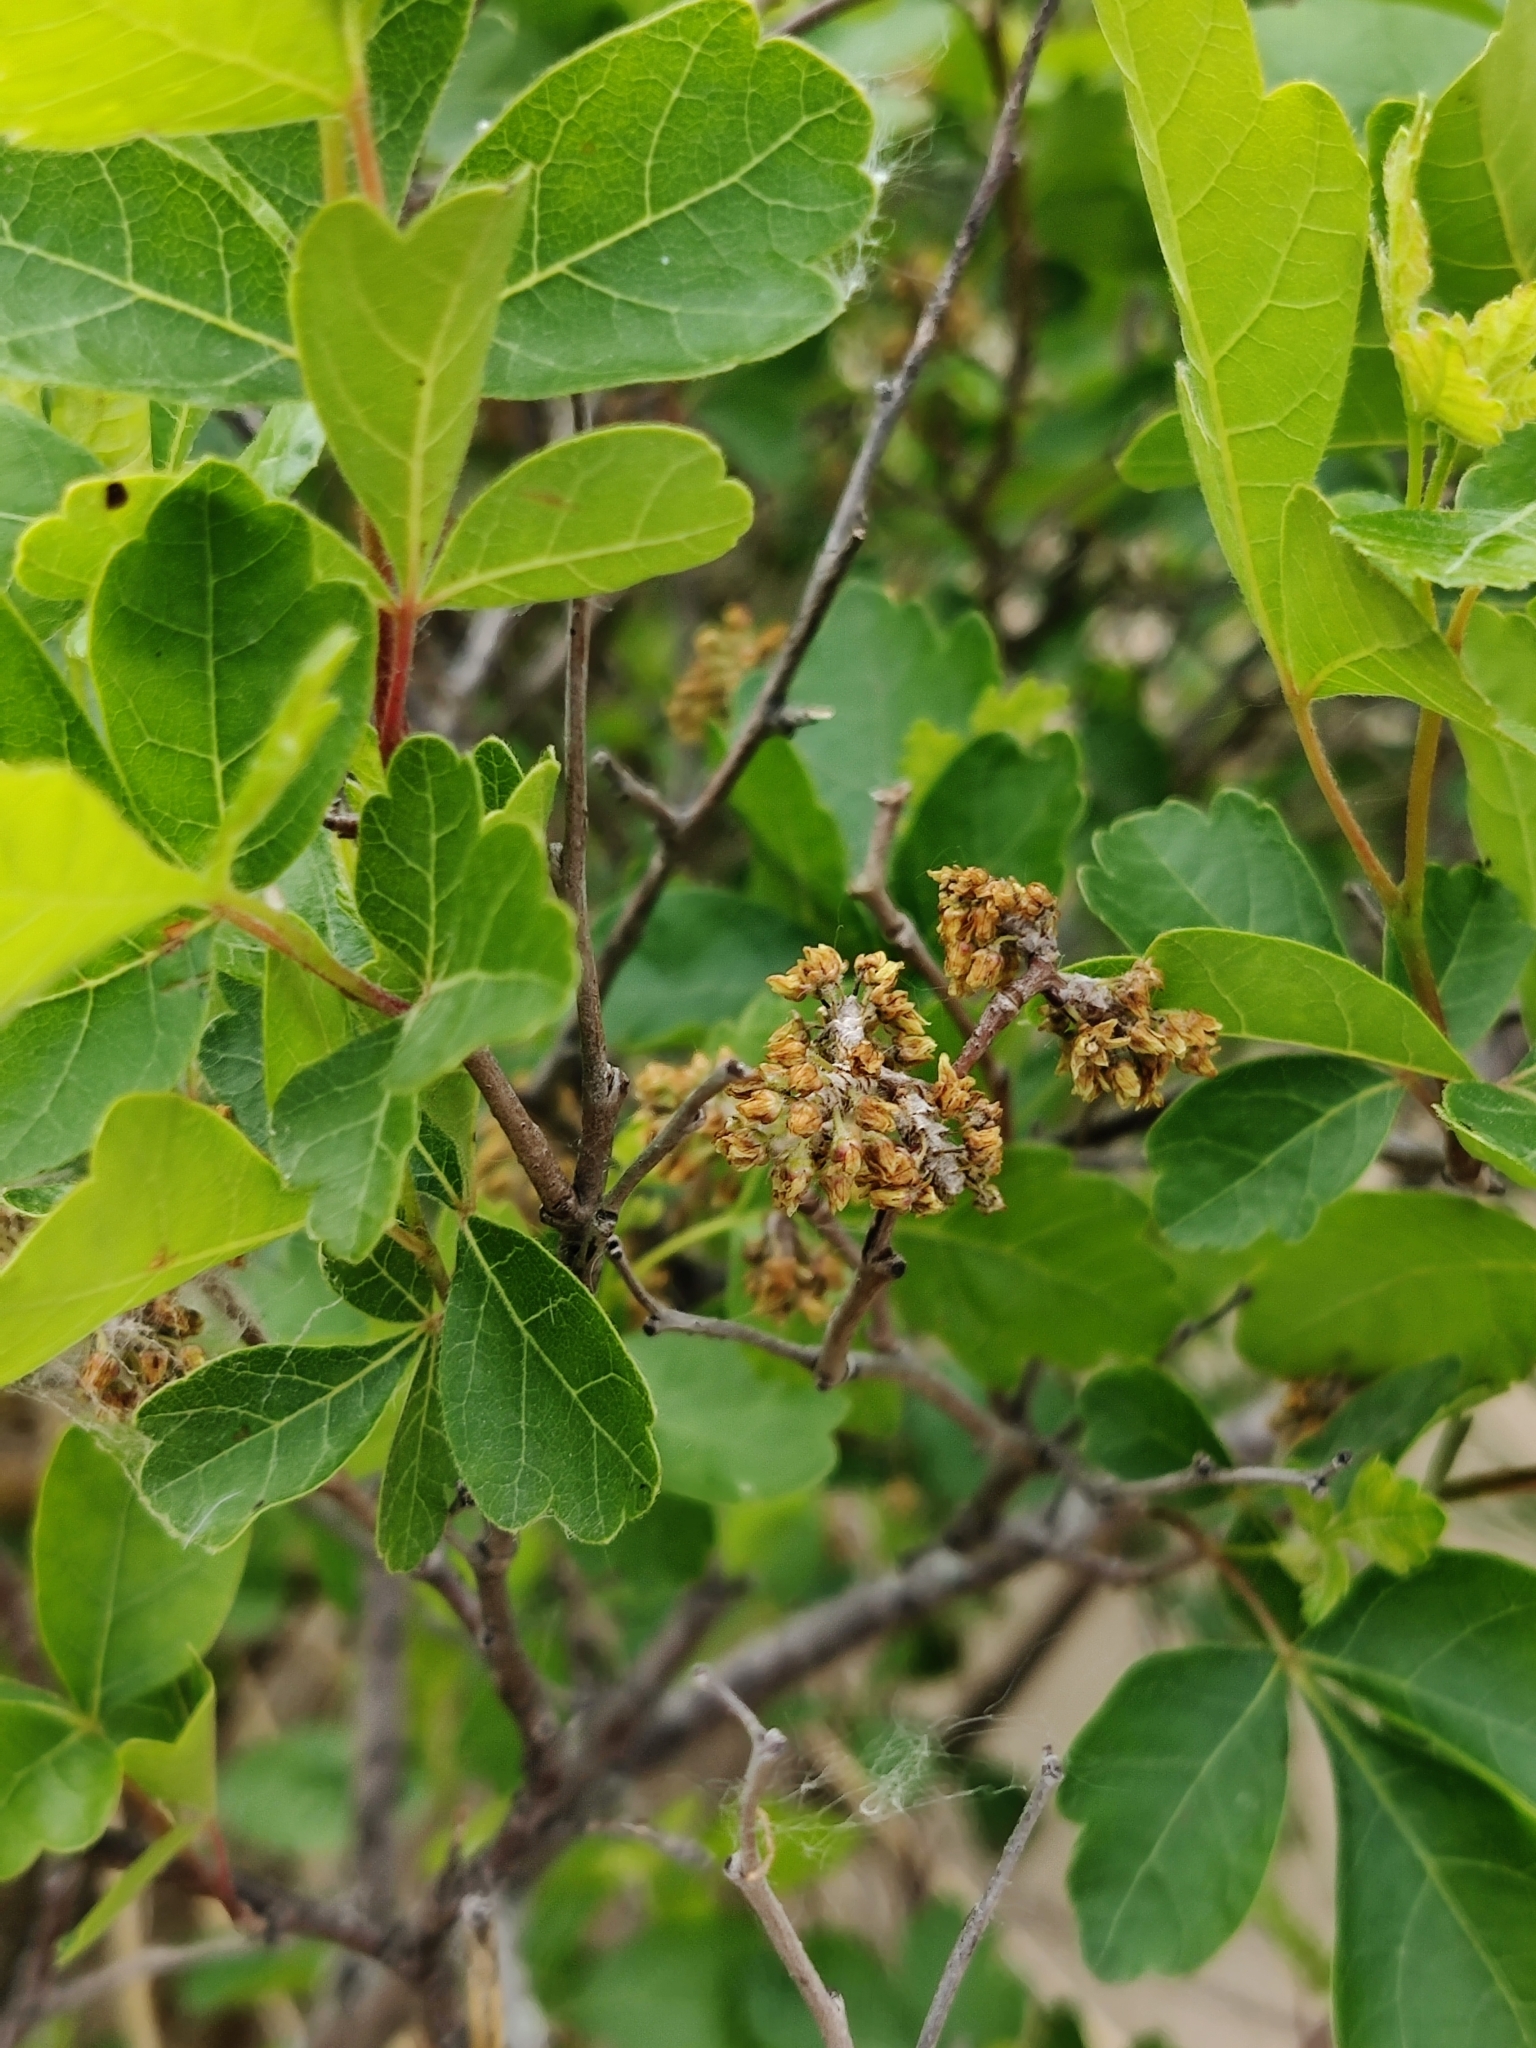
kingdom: Plantae
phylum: Tracheophyta
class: Magnoliopsida
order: Sapindales
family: Anacardiaceae
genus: Rhus
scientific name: Rhus aromatica
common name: Aromatic sumac
